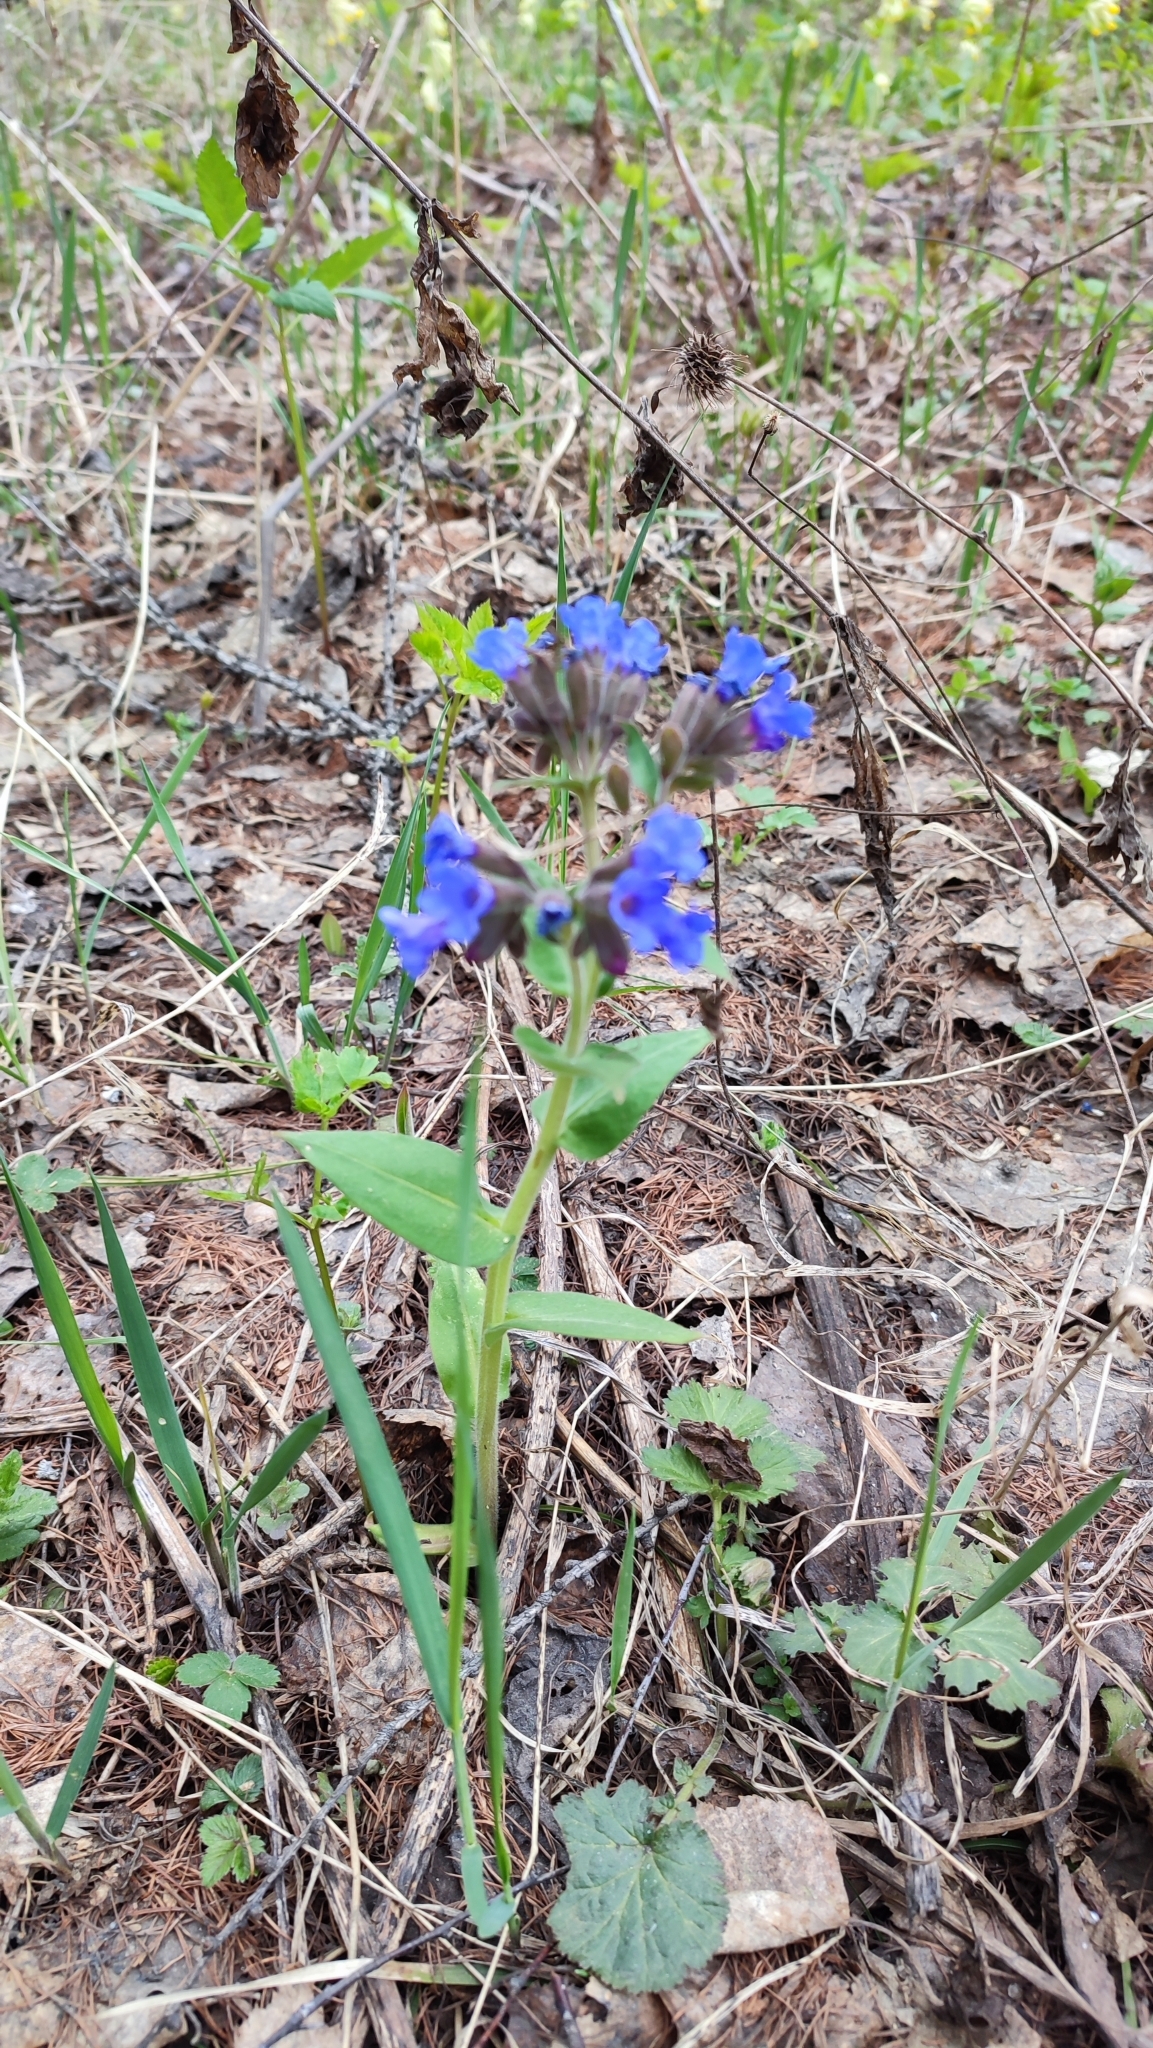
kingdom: Plantae
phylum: Tracheophyta
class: Magnoliopsida
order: Boraginales
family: Boraginaceae
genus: Pulmonaria
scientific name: Pulmonaria mollis
